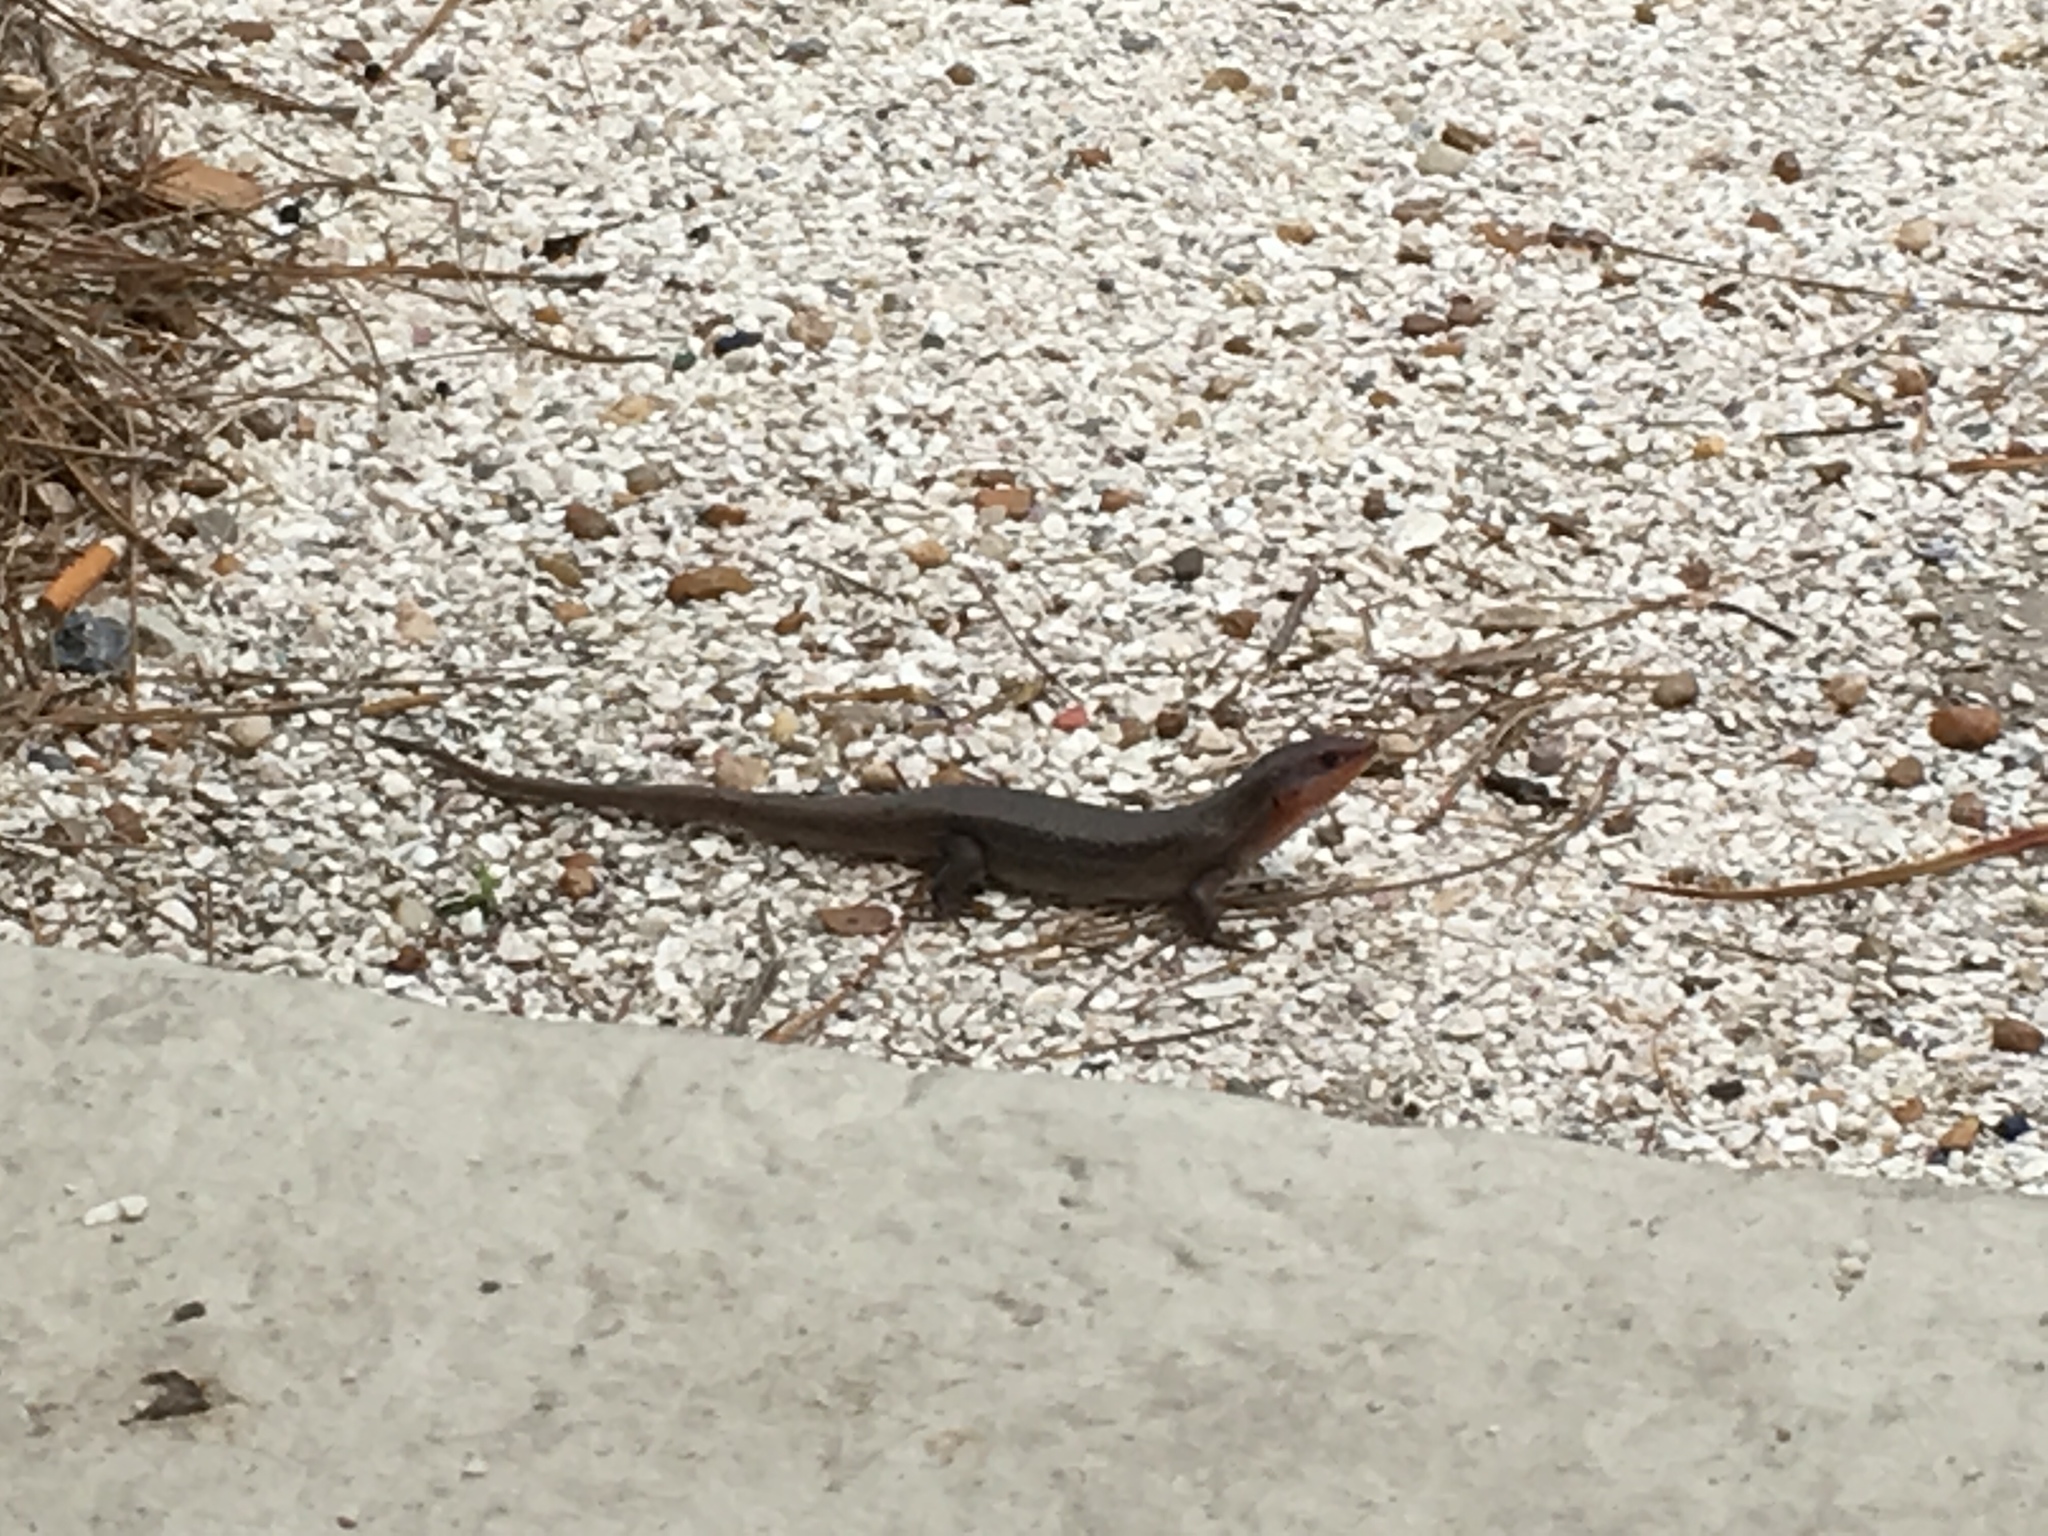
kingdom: Animalia
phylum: Chordata
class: Squamata
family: Scincidae
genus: Plestiodon
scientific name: Plestiodon laticeps
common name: Broadhead skink
